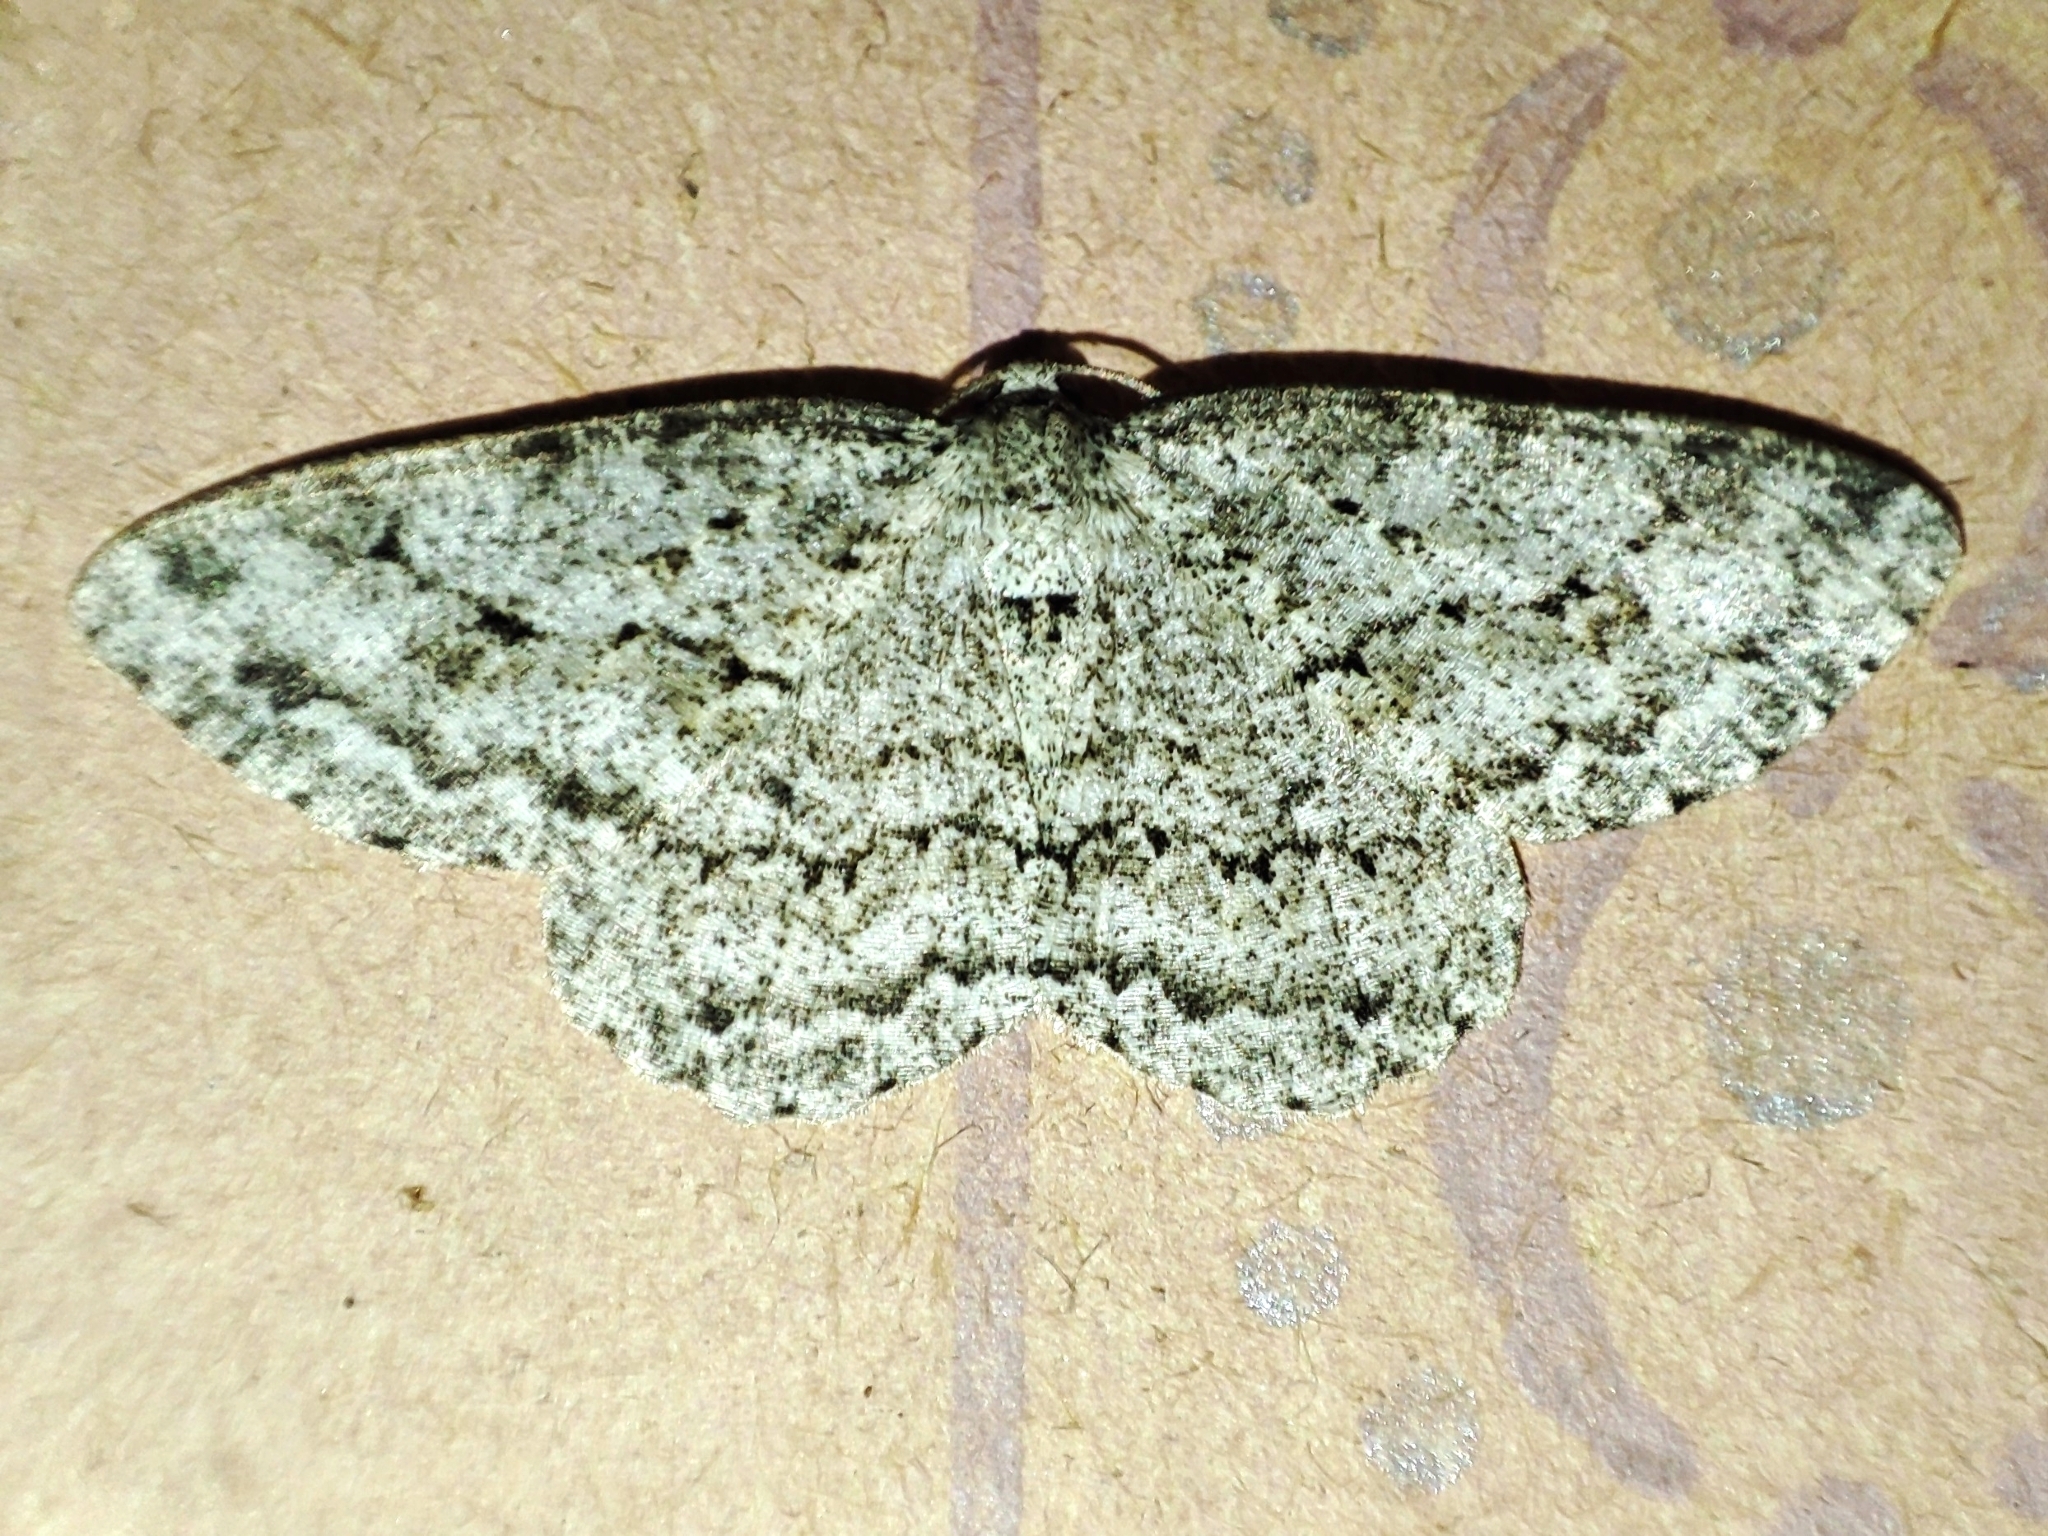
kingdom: Animalia
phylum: Arthropoda
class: Insecta
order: Lepidoptera
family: Geometridae
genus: Ectropis
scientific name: Ectropis crepuscularia
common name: Engrailed
